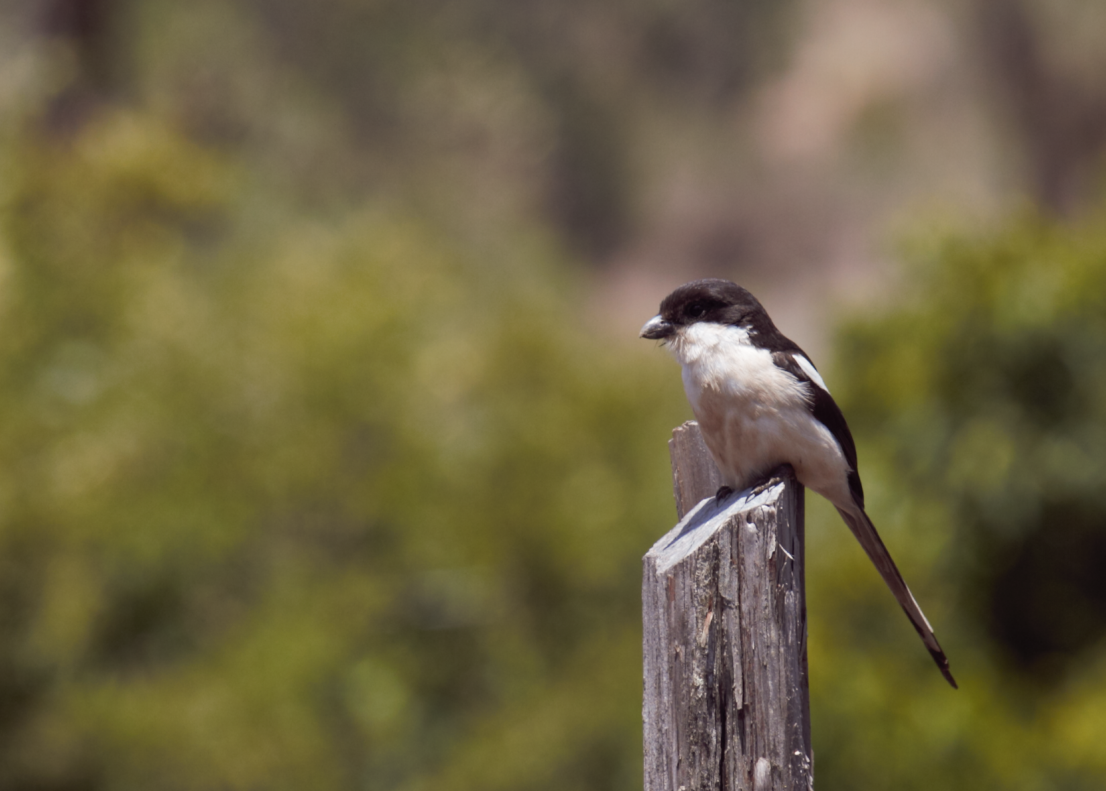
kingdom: Animalia
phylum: Chordata
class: Aves
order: Passeriformes
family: Laniidae
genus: Lanius
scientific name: Lanius humeralis
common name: Northern fiscal
